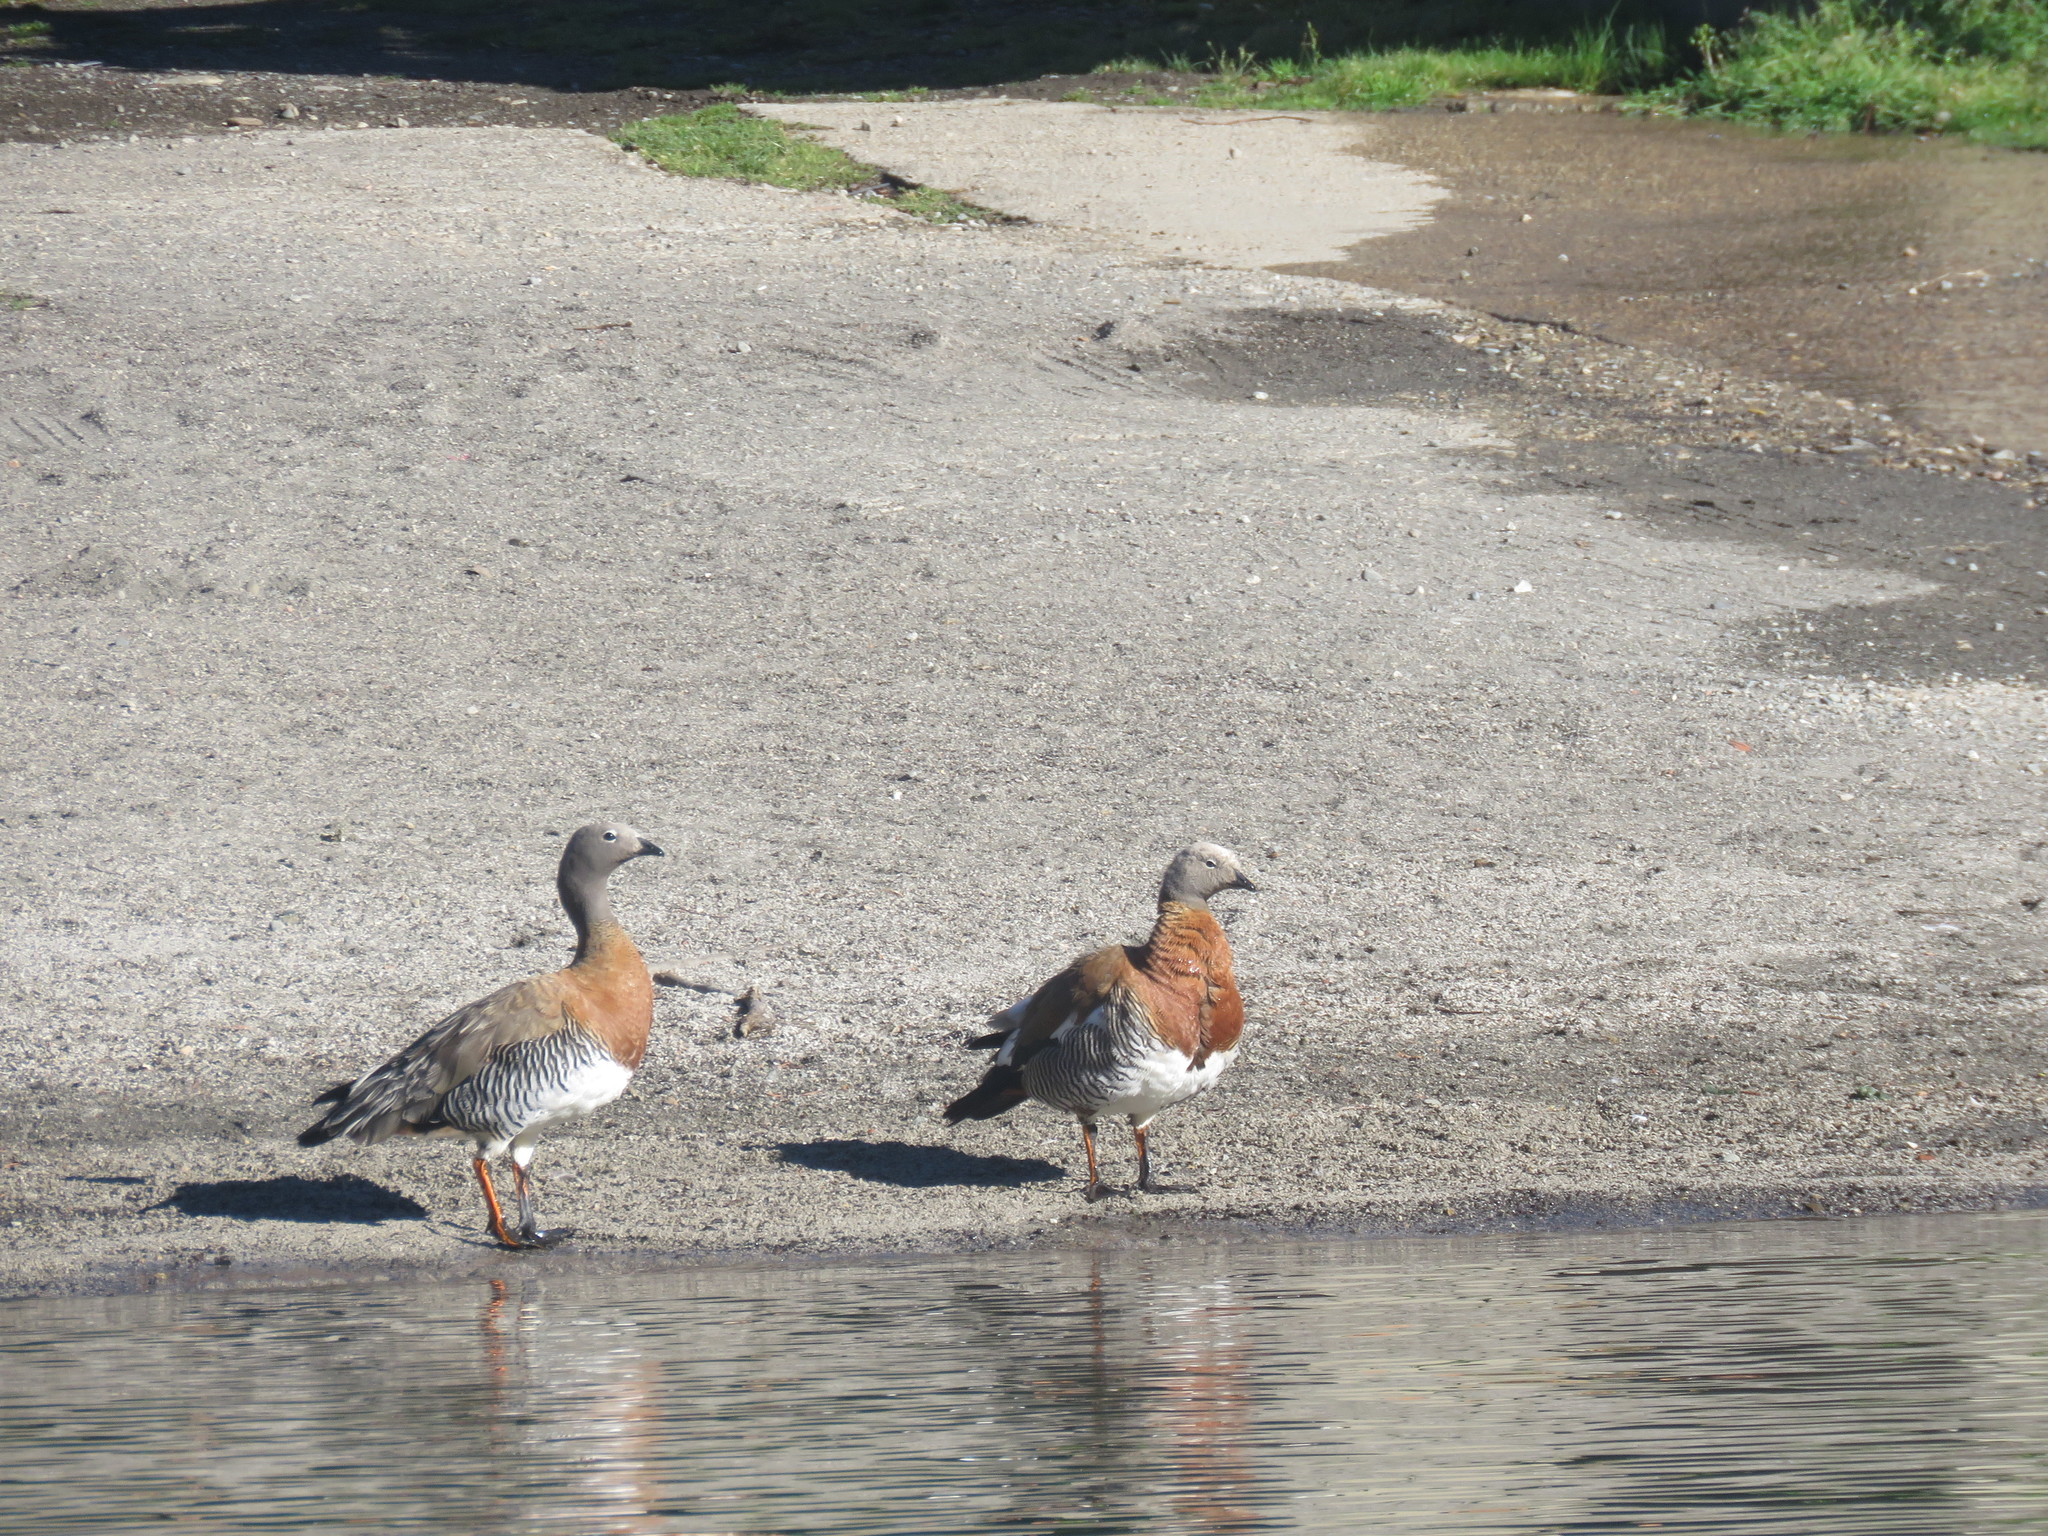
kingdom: Animalia
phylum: Chordata
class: Aves
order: Anseriformes
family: Anatidae
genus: Chloephaga
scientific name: Chloephaga poliocephala
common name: Ashy-headed goose
